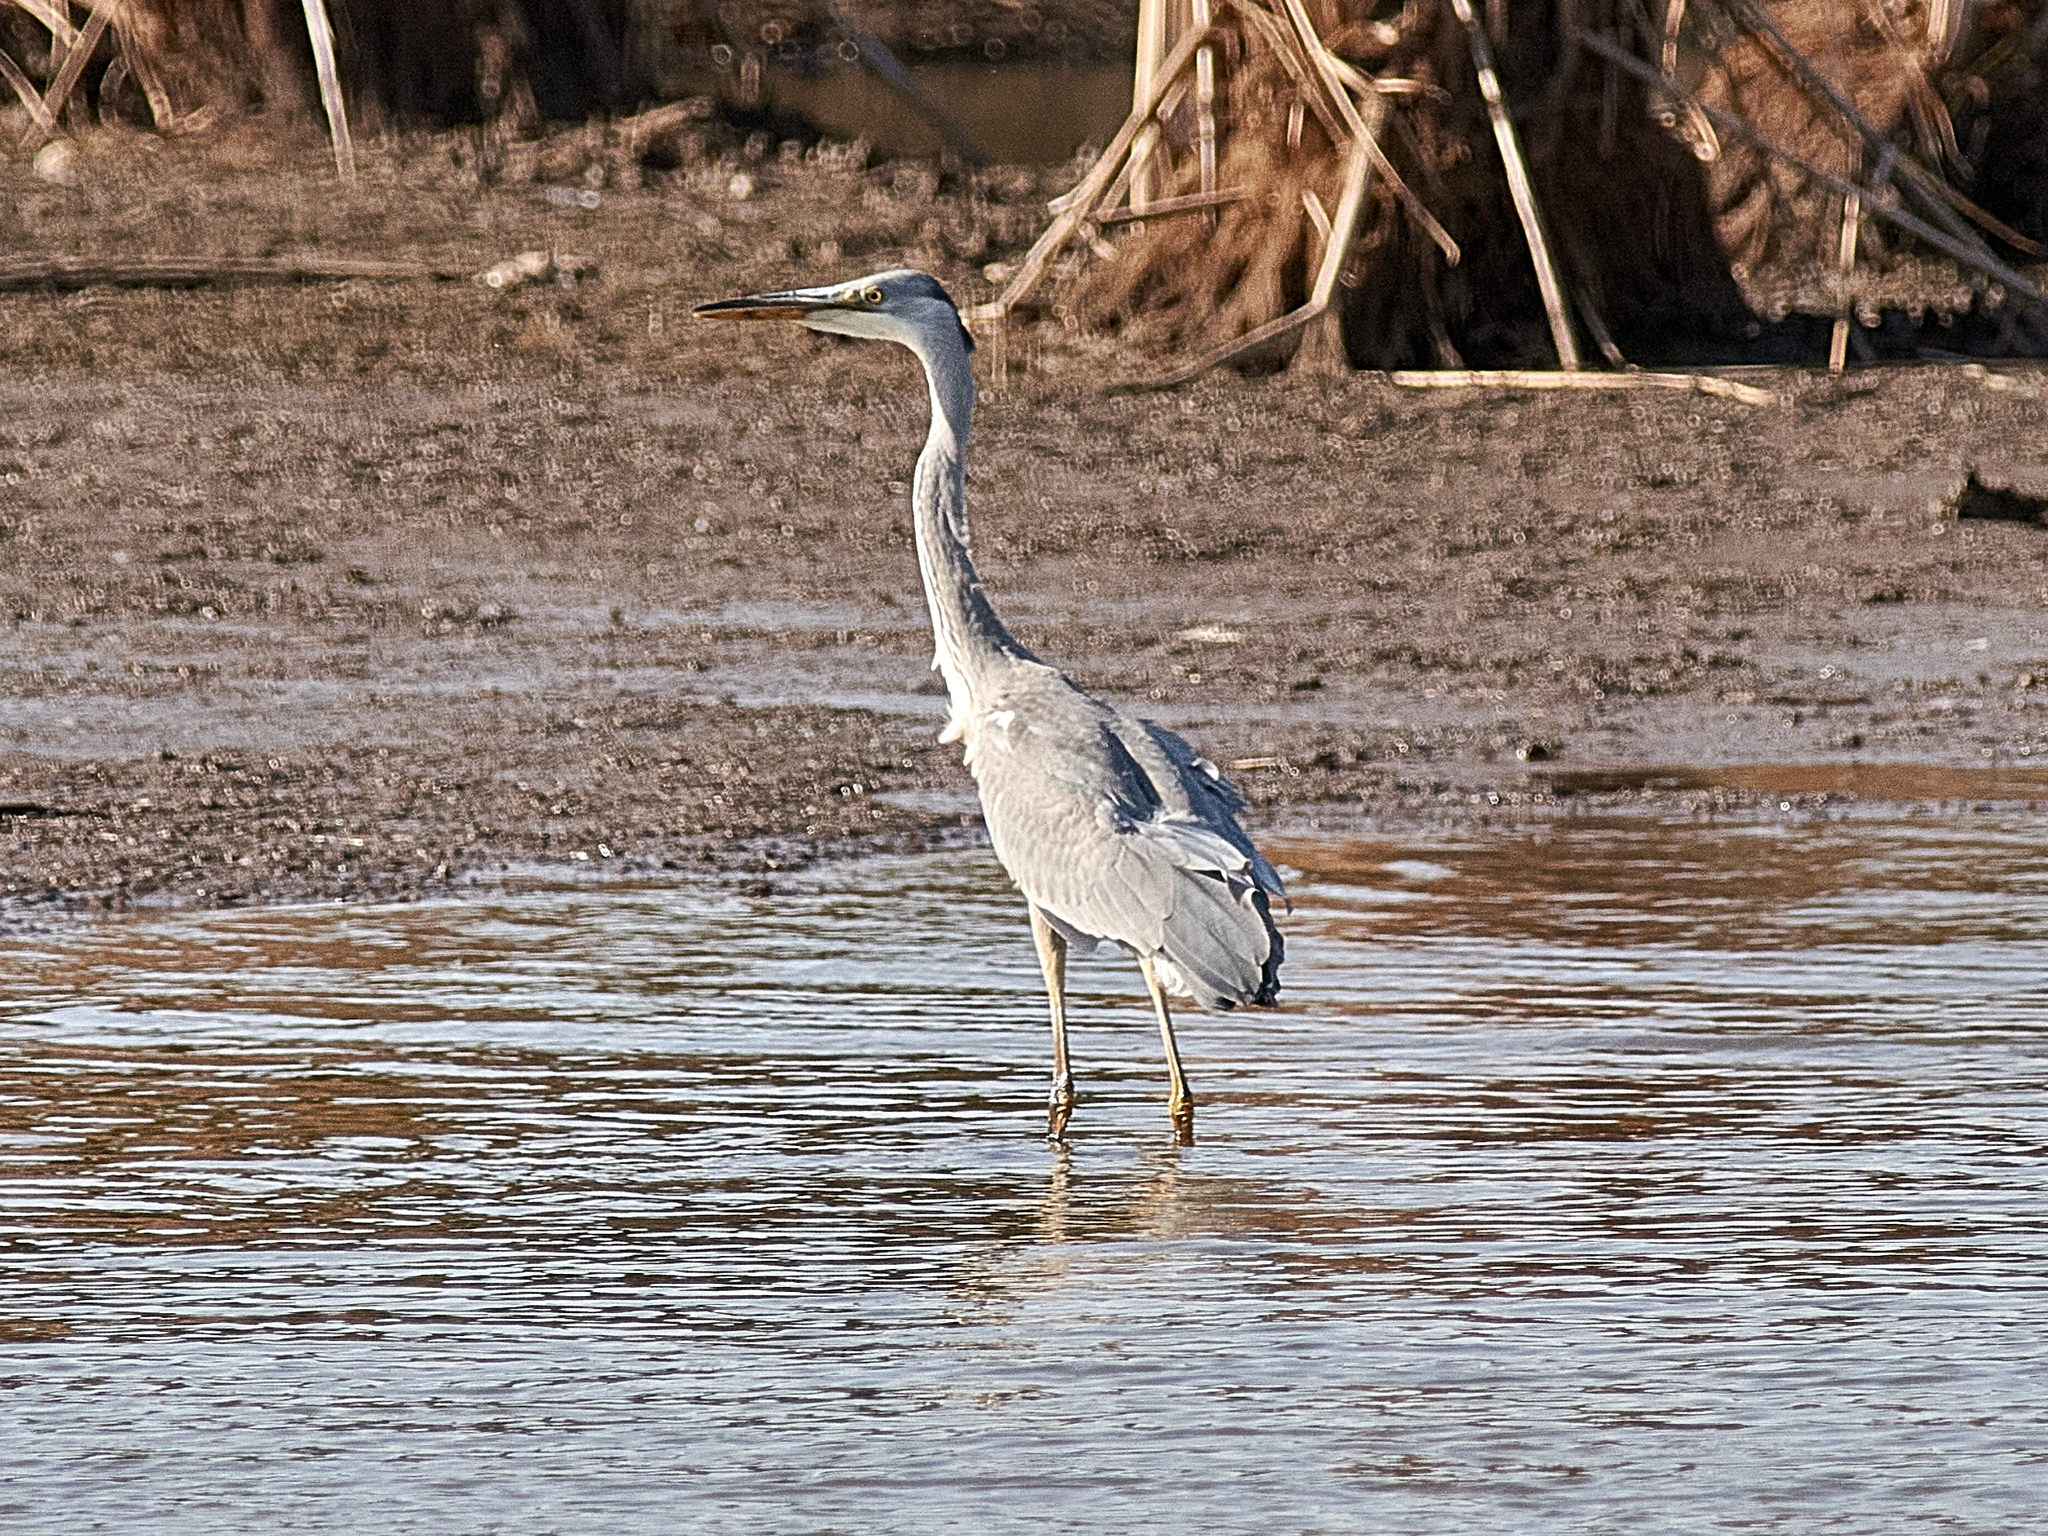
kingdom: Animalia
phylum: Chordata
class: Aves
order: Pelecaniformes
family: Ardeidae
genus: Ardea
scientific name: Ardea cinerea
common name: Grey heron
